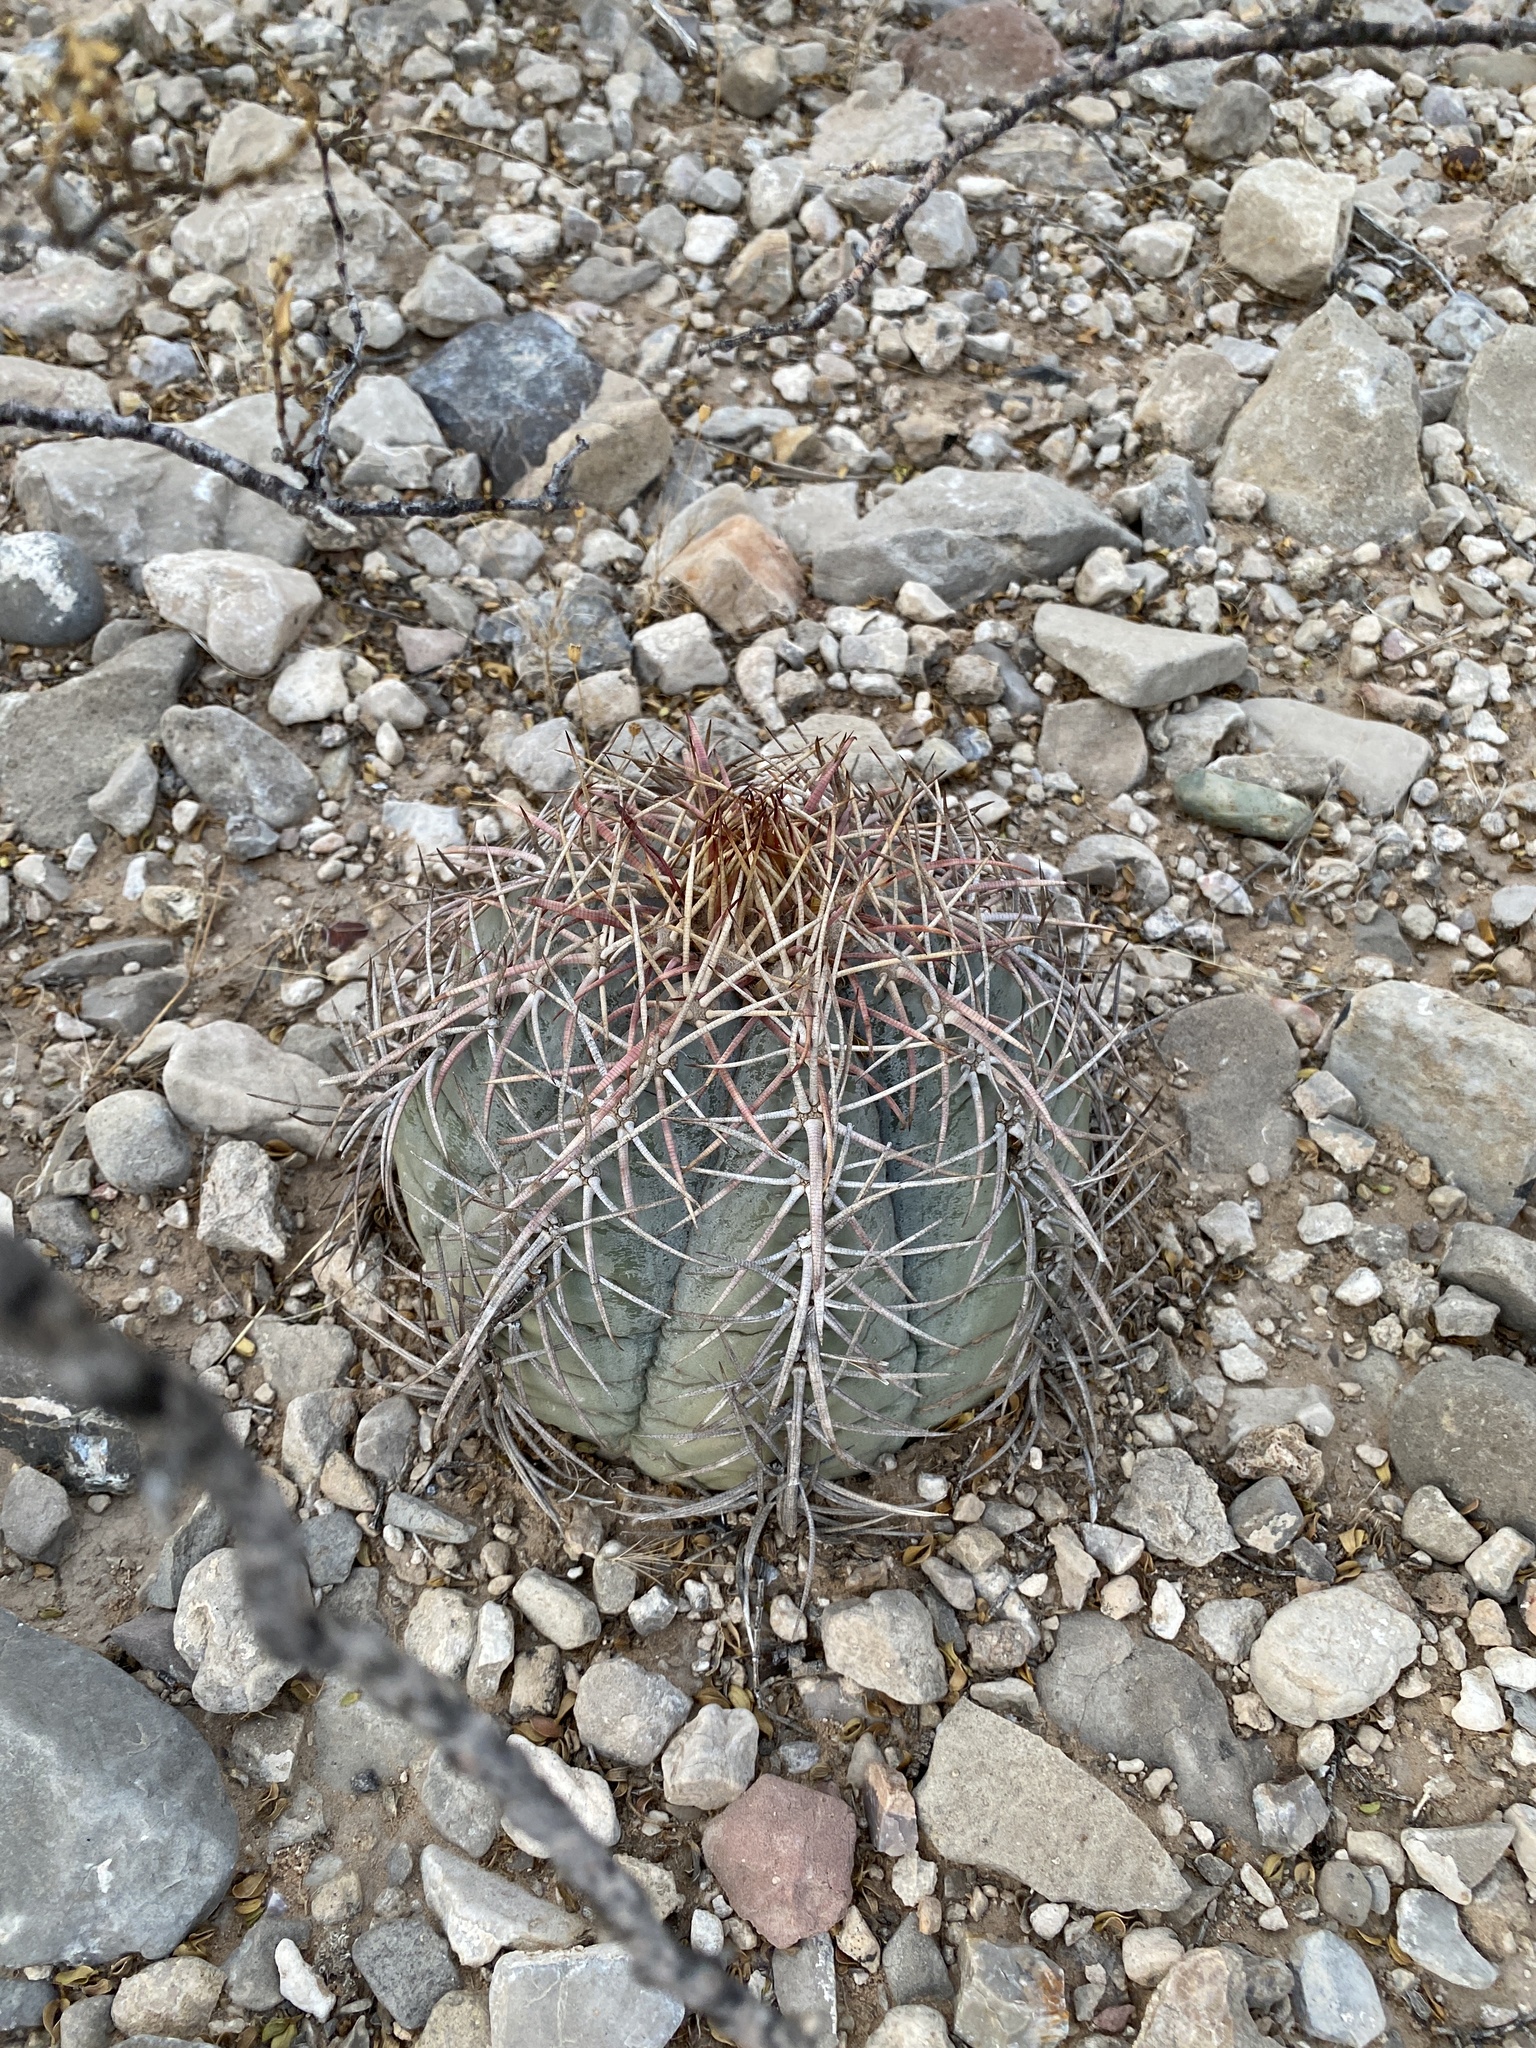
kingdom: Plantae
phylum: Tracheophyta
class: Magnoliopsida
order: Caryophyllales
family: Cactaceae
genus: Echinocactus
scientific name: Echinocactus horizonthalonius
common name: Devilshead
